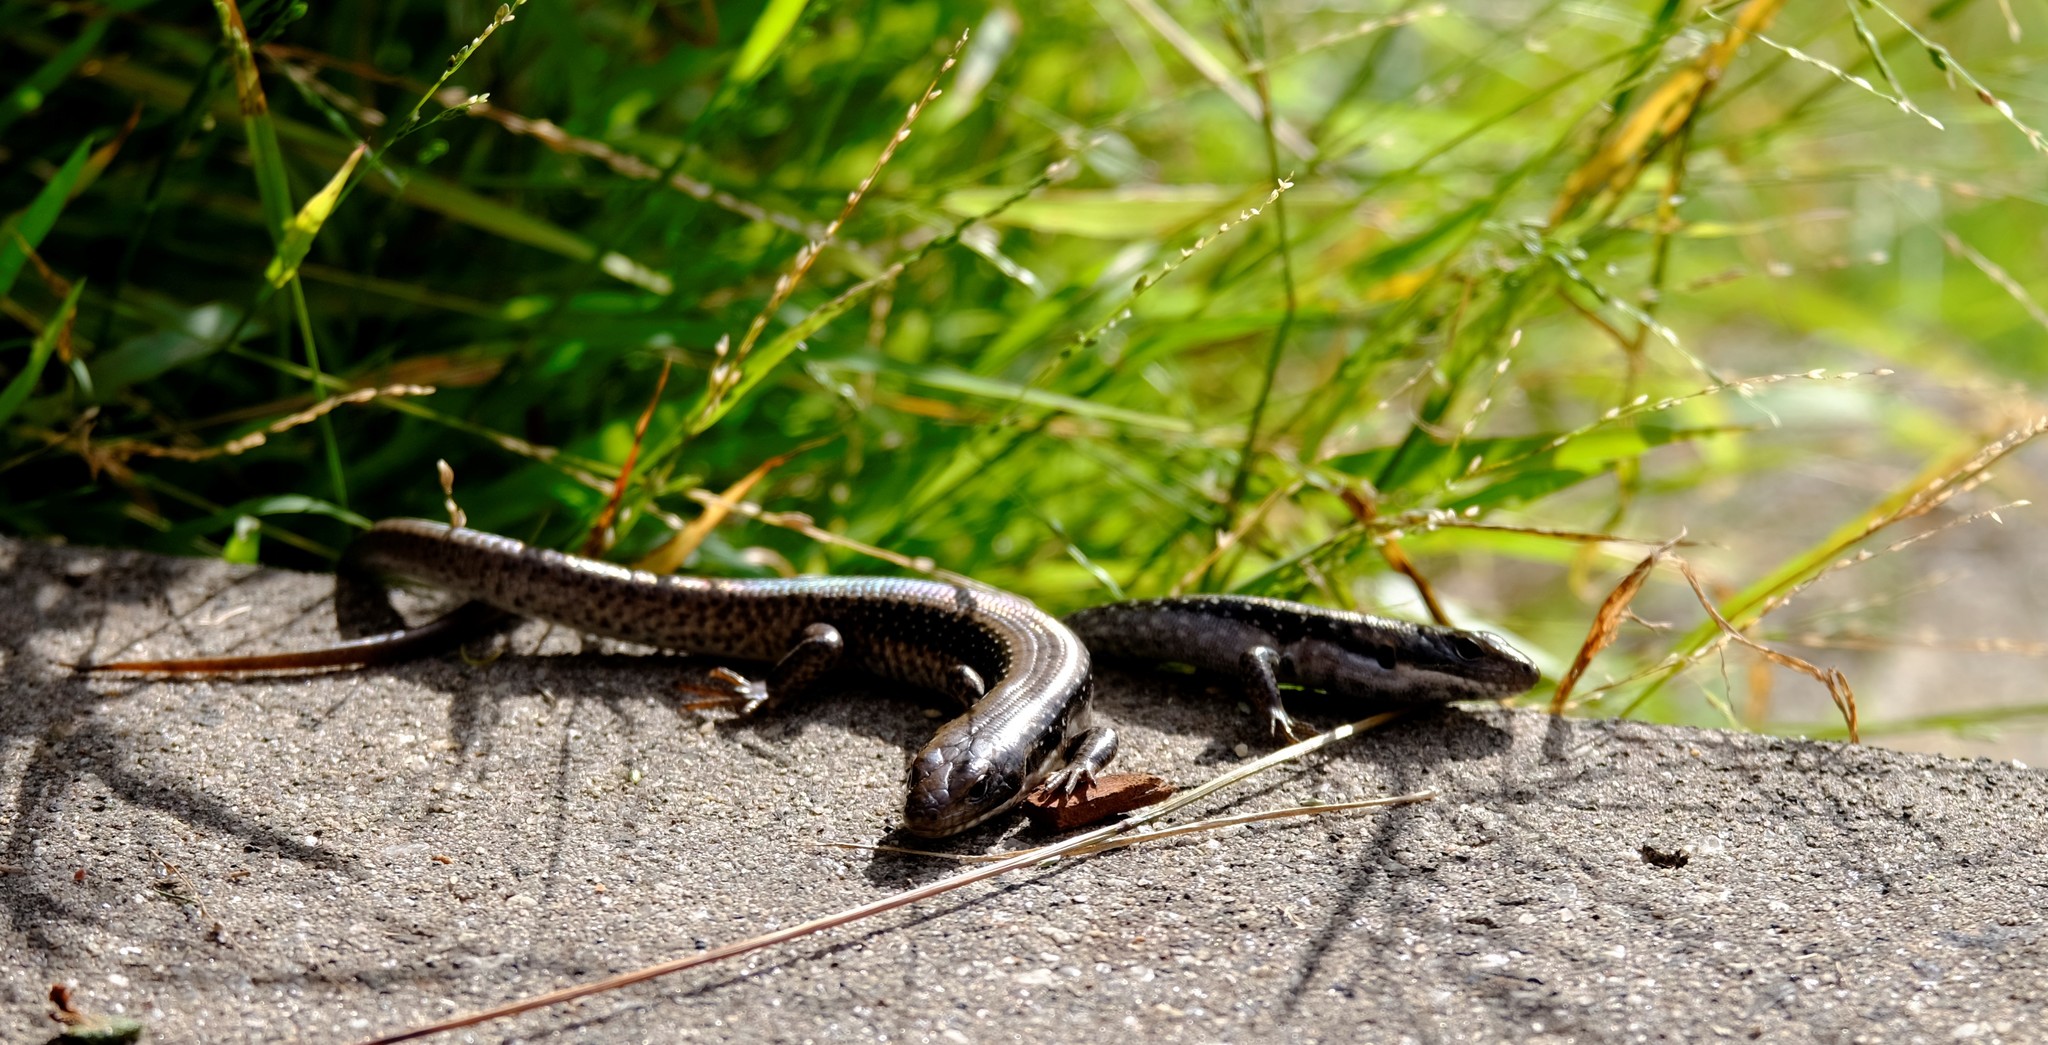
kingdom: Animalia
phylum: Chordata
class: Squamata
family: Scincidae
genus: Eulamprus
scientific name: Eulamprus tympanum
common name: Cool-temperate water-skink
